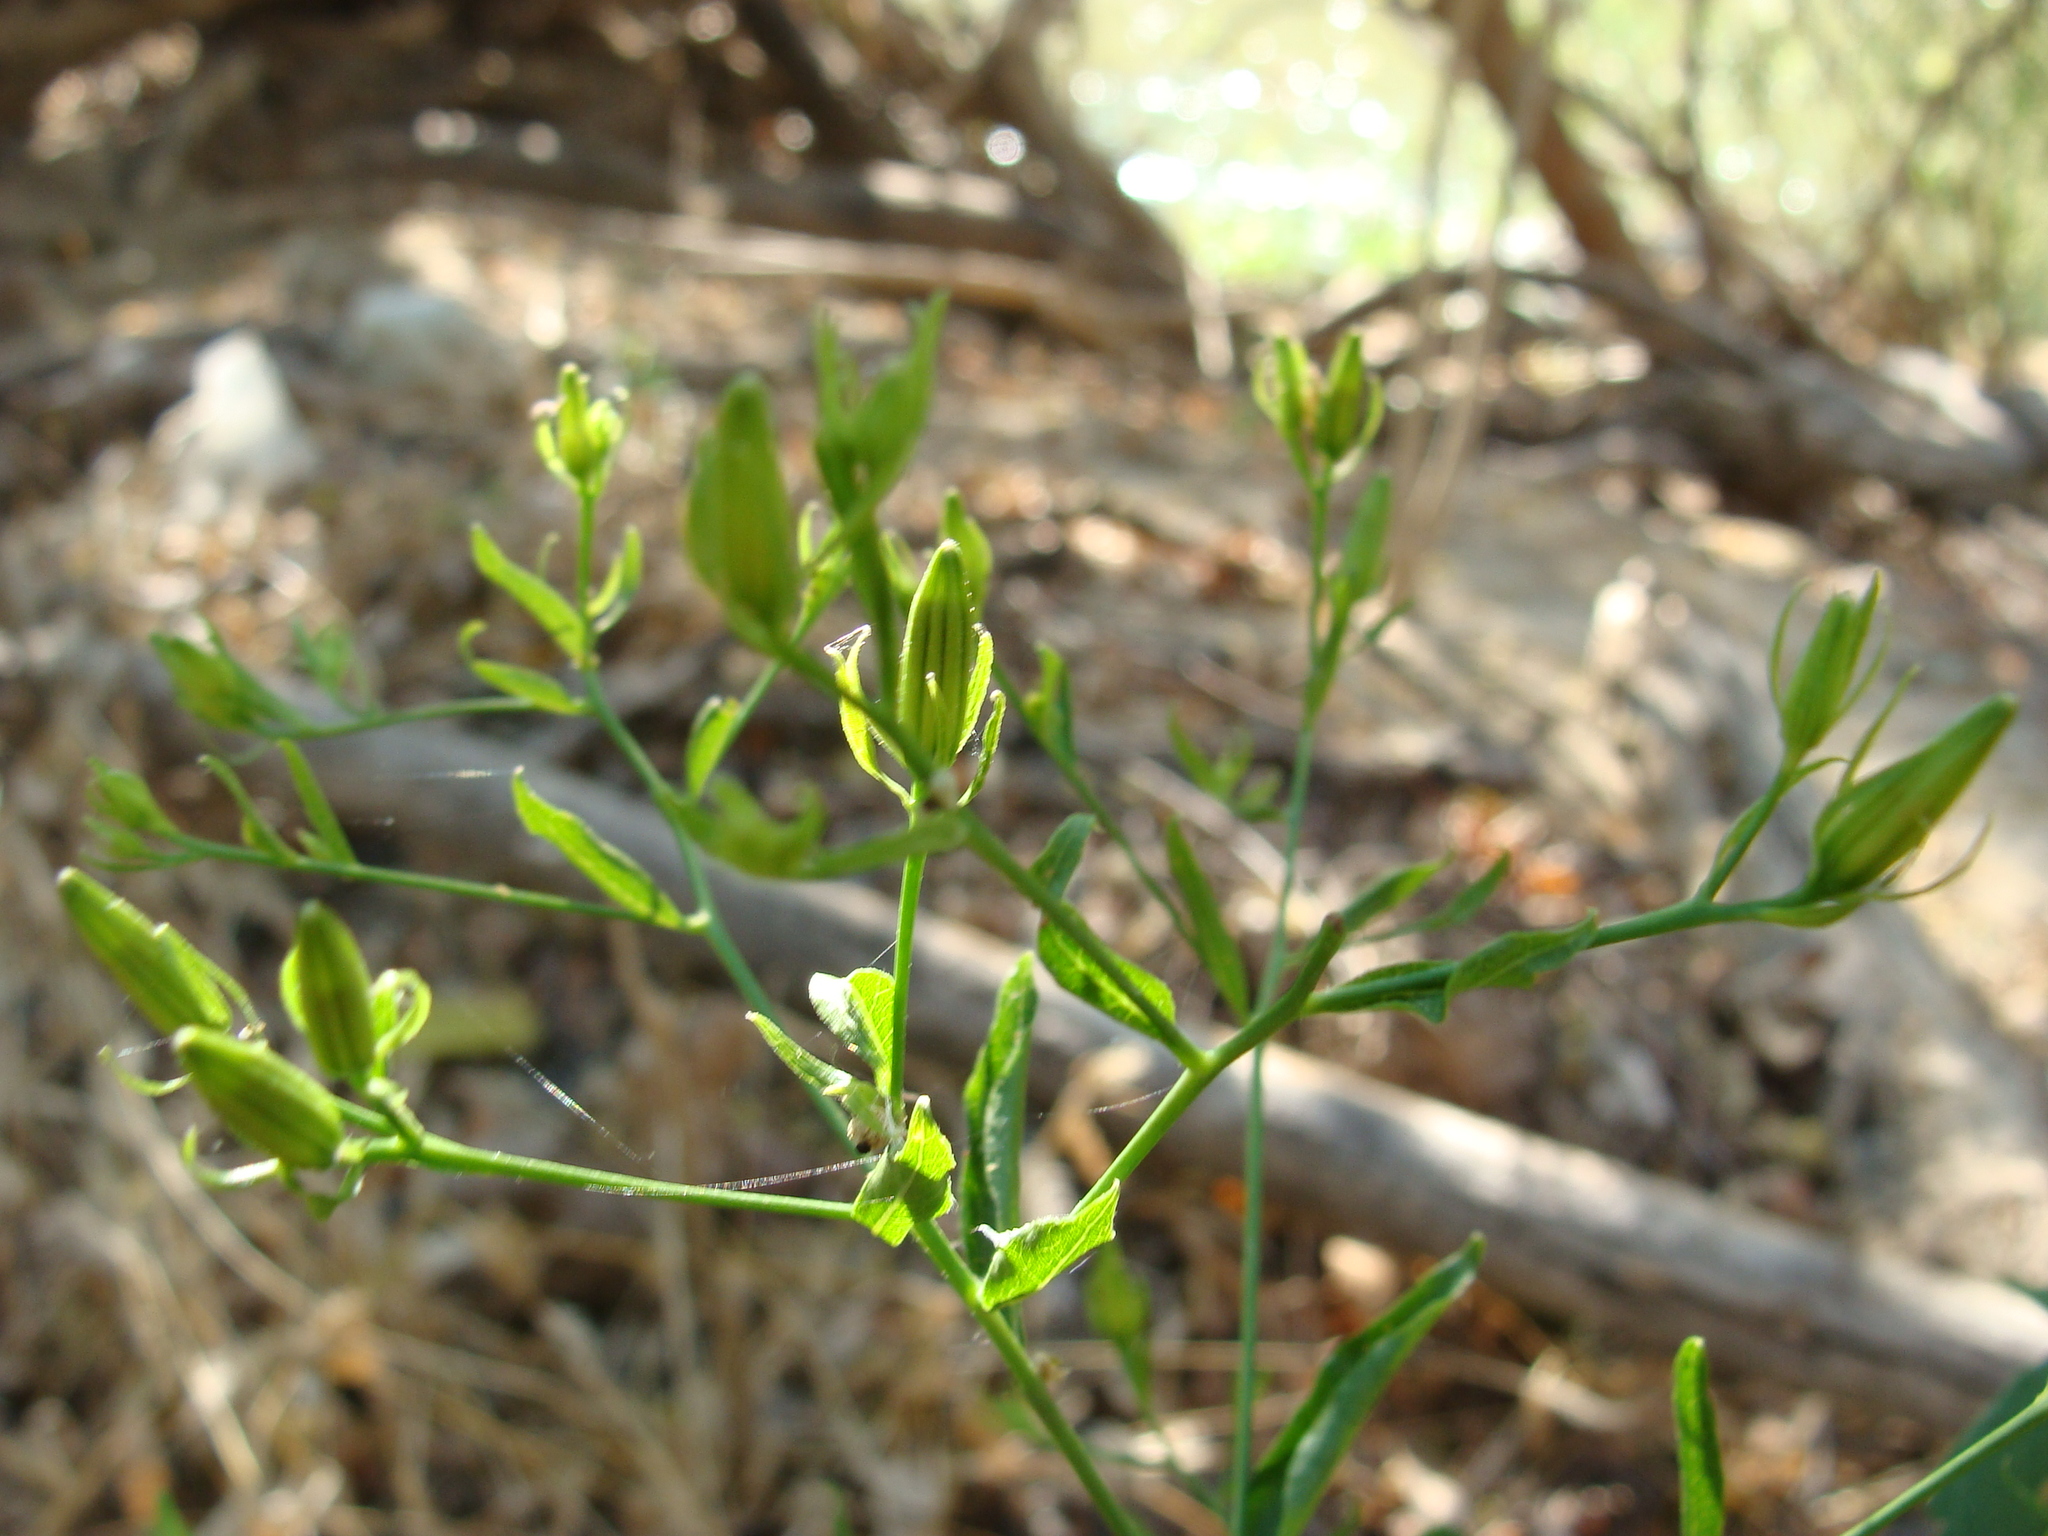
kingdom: Plantae
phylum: Tracheophyta
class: Magnoliopsida
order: Asterales
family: Asteraceae
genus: Trixis
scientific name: Trixis inula
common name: Tropical threefold
